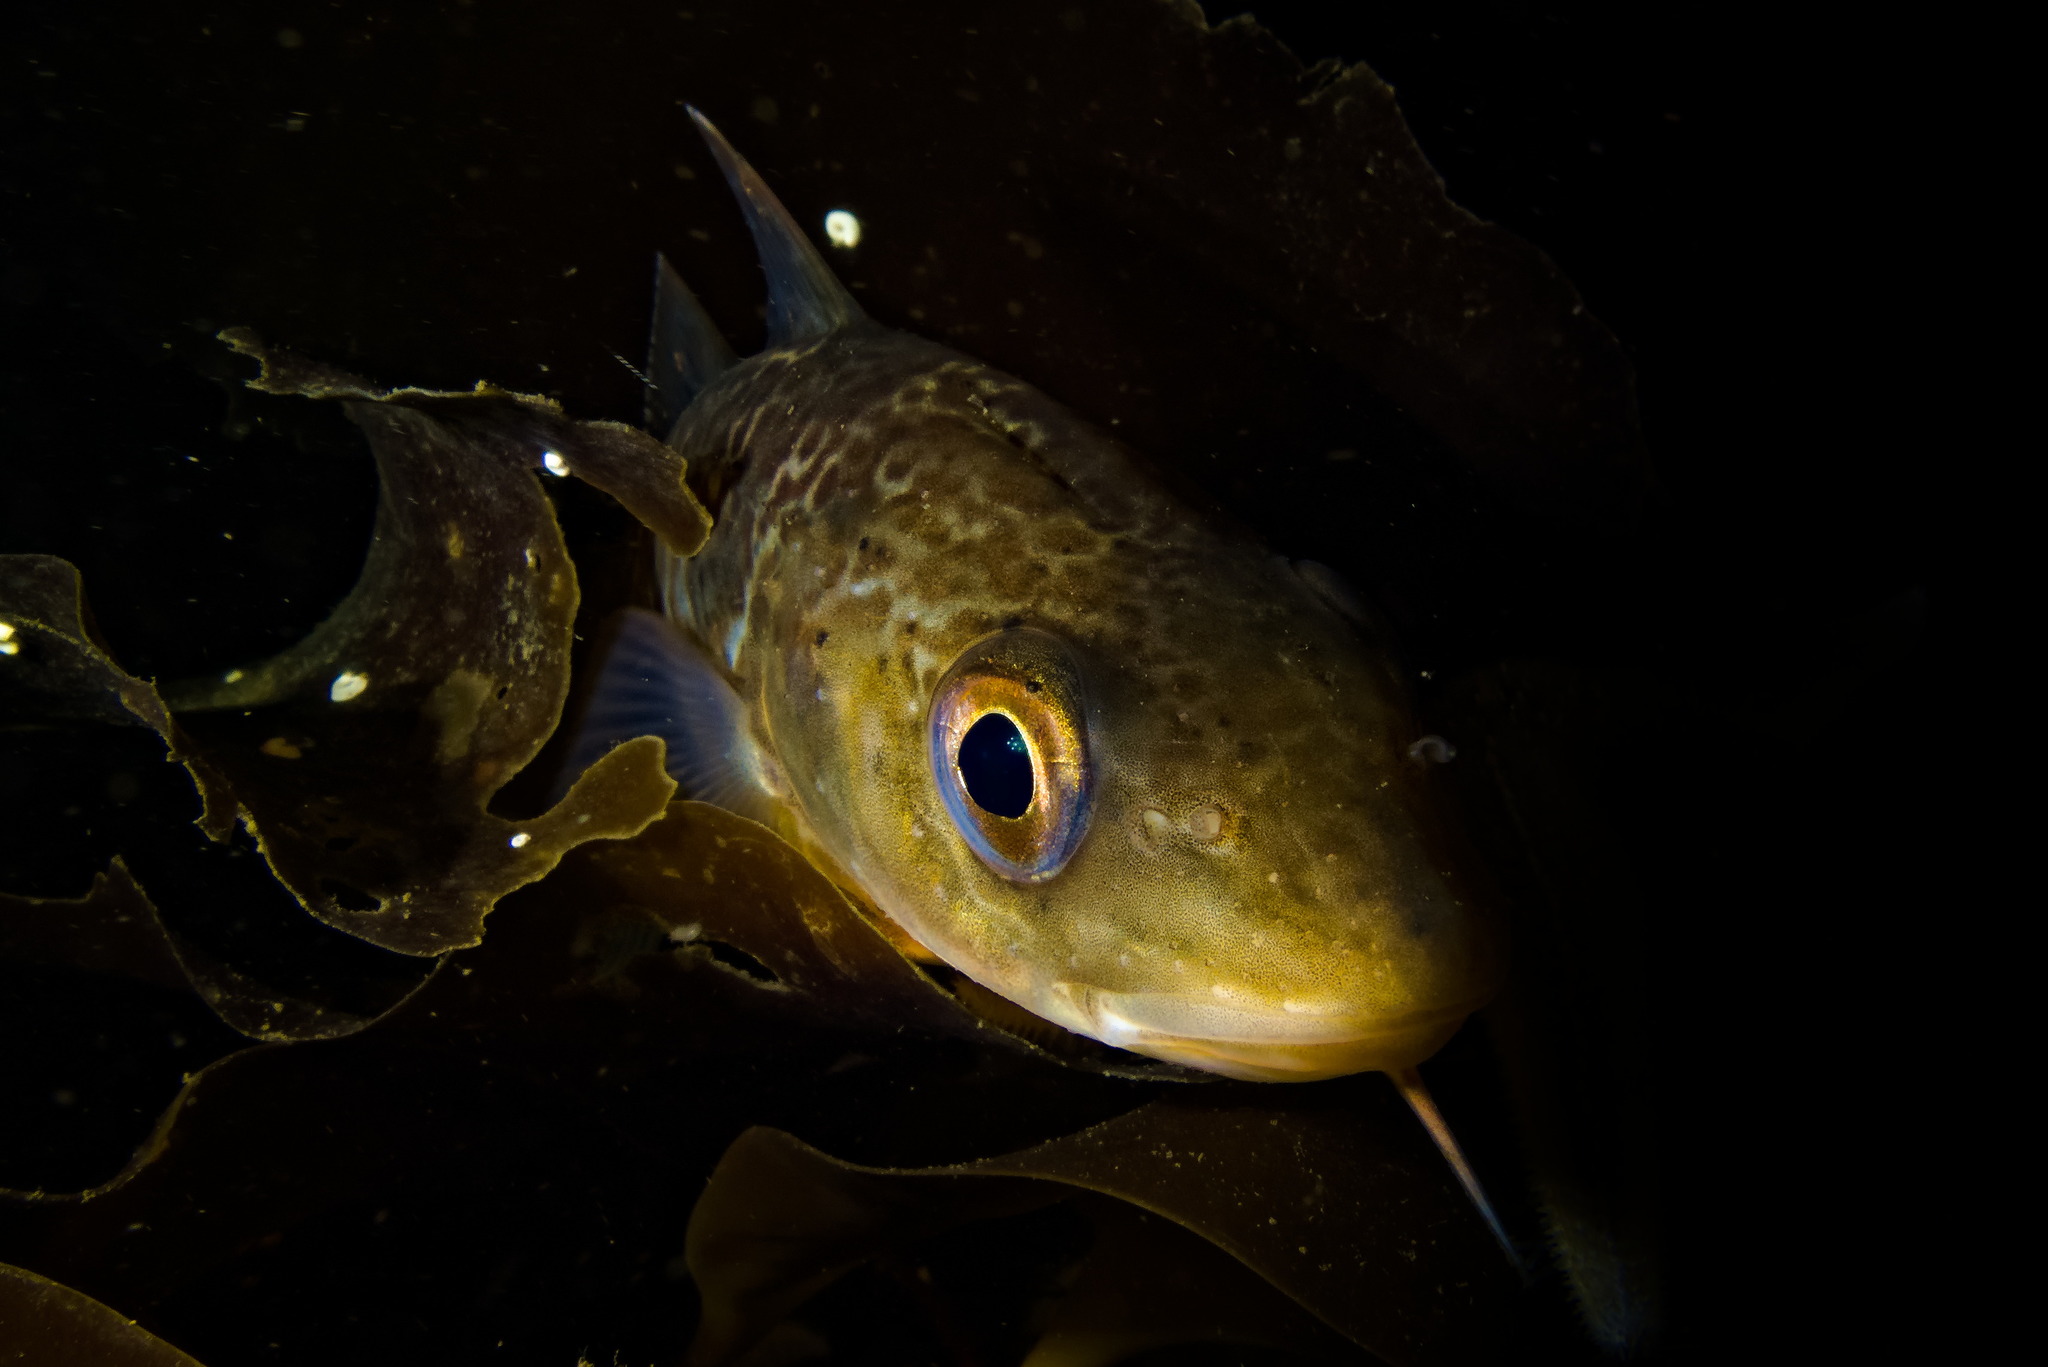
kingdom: Animalia
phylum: Chordata
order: Gadiformes
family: Gadidae
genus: Gadus
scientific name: Gadus morhua
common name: Atlantic cod
